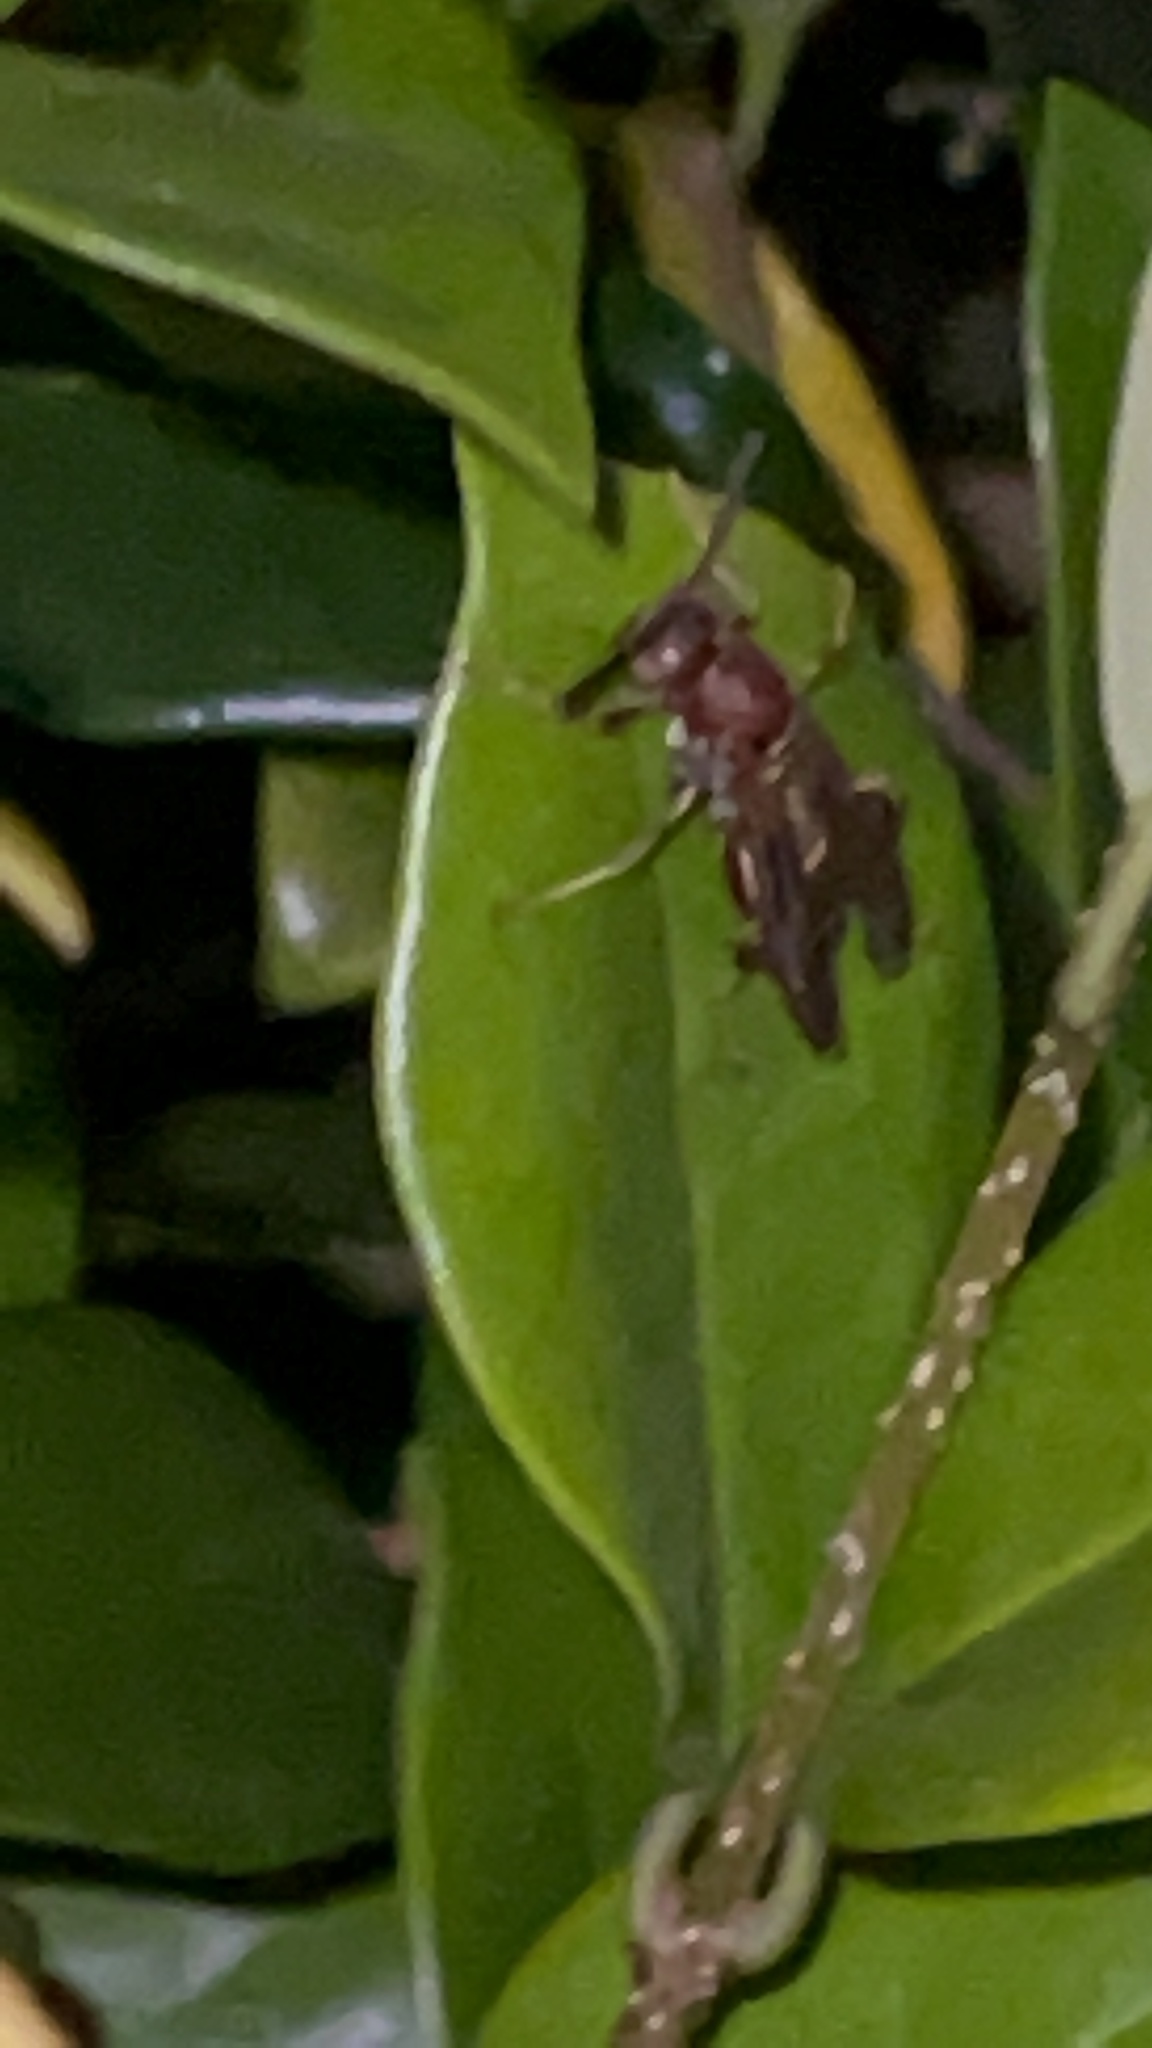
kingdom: Animalia
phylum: Arthropoda
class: Insecta
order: Hymenoptera
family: Vespidae
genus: Fuscopolistes
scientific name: Fuscopolistes
